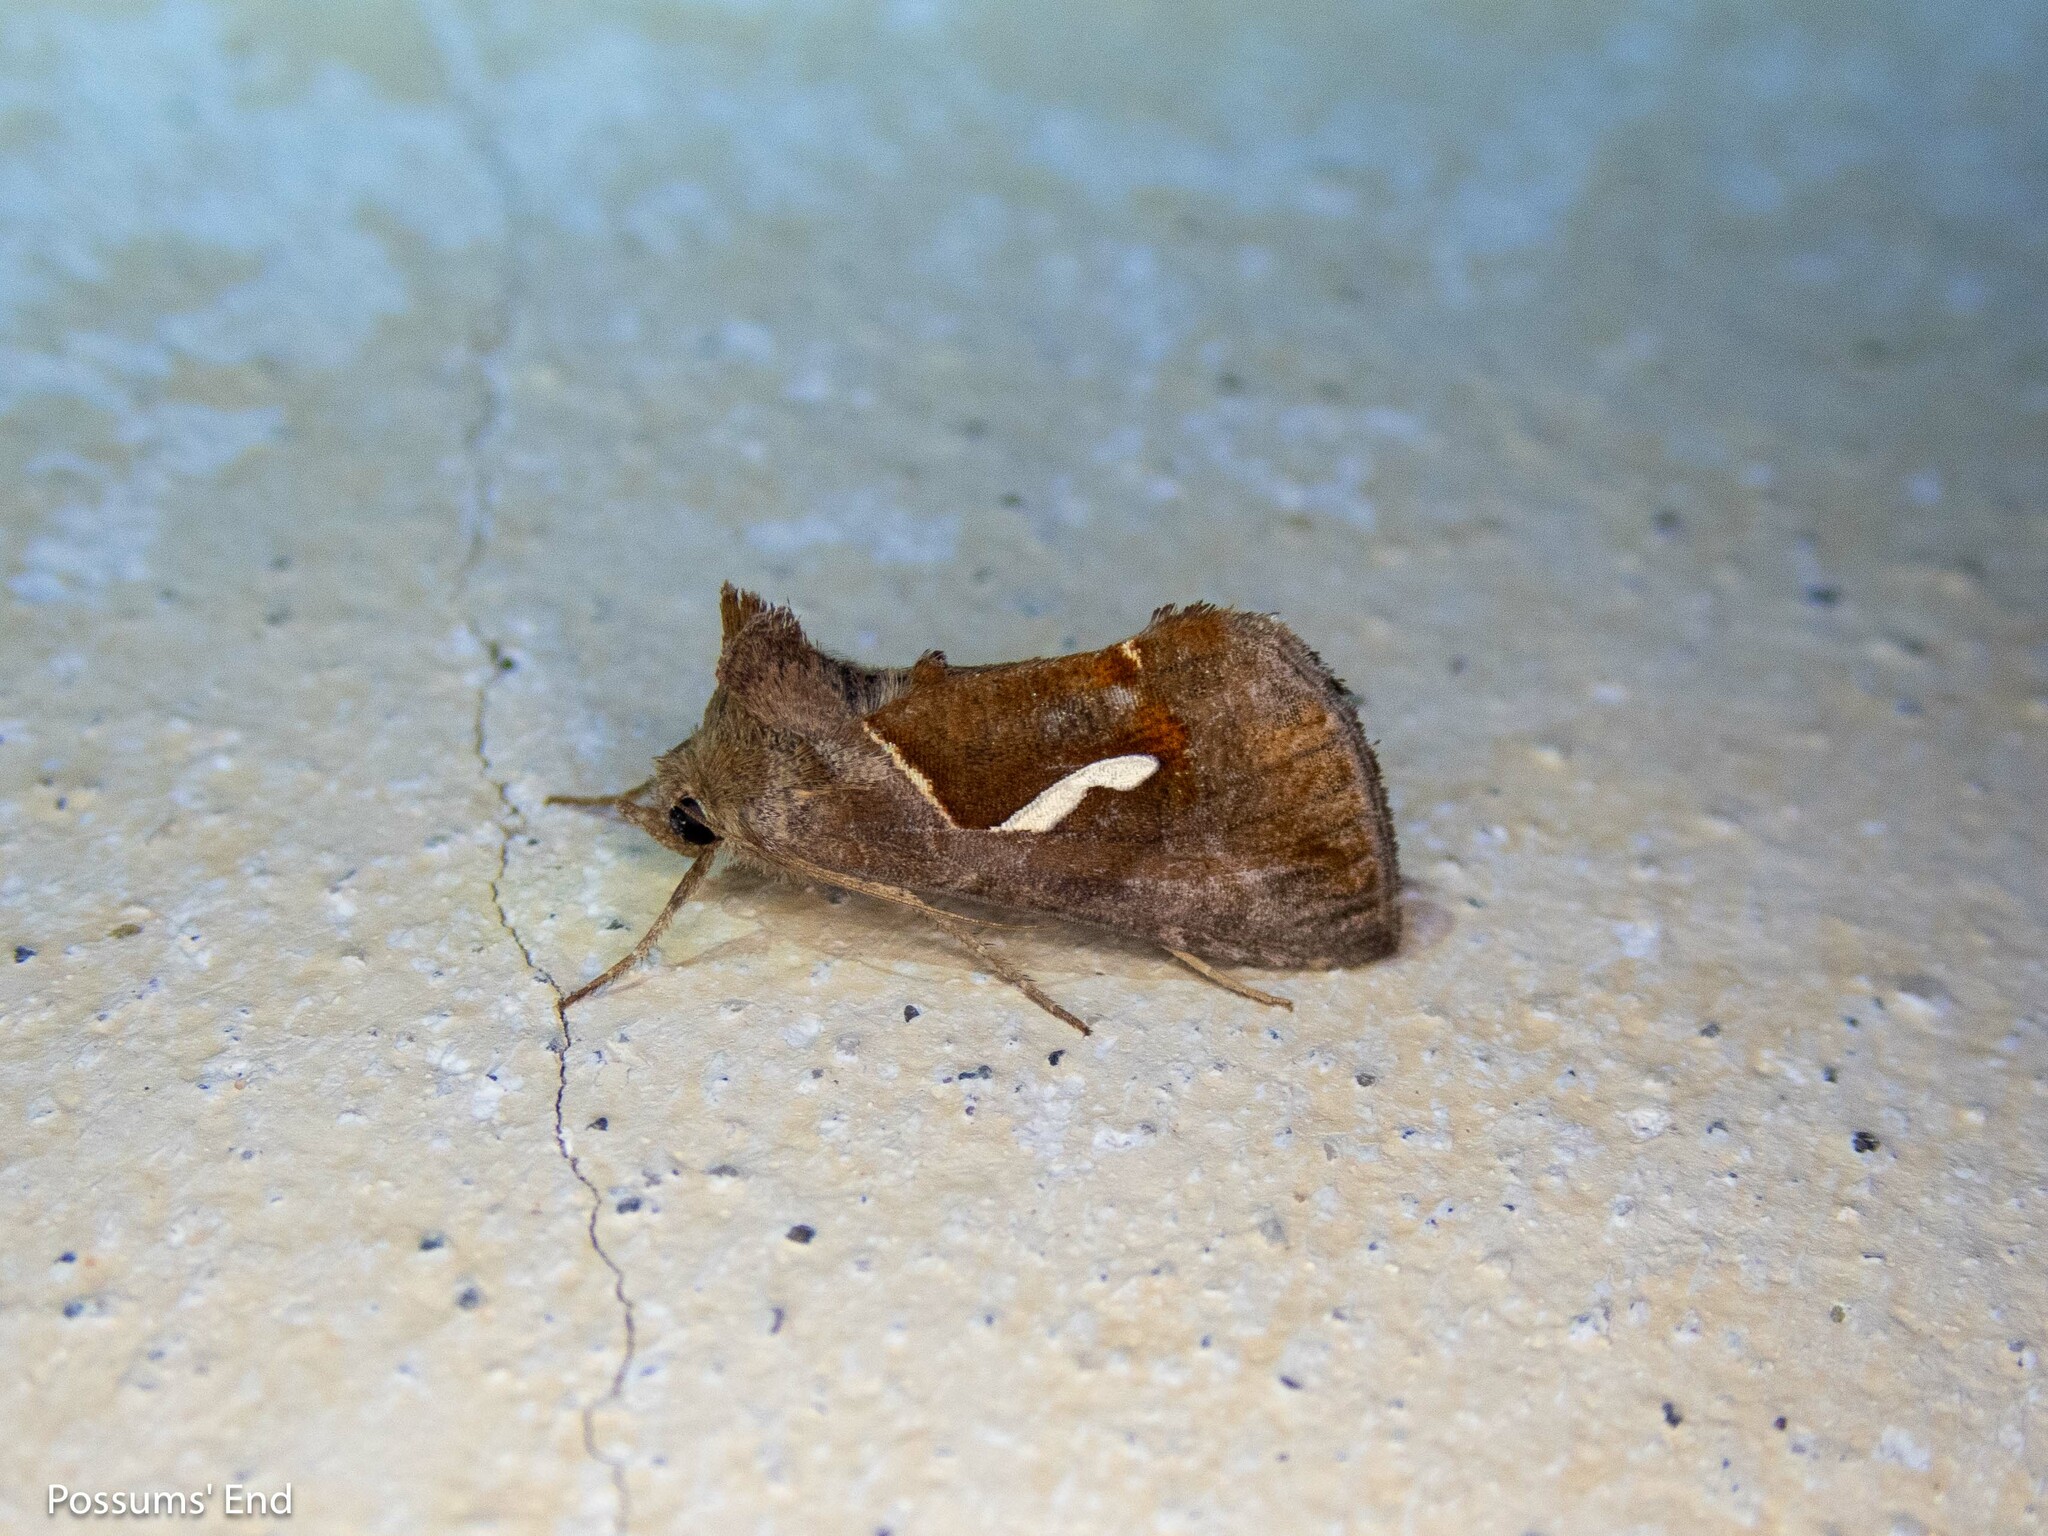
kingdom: Animalia
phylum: Arthropoda
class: Insecta
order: Lepidoptera
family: Noctuidae
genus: Macdunnoughia
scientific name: Macdunnoughia confusa
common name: Dewick's plusia
